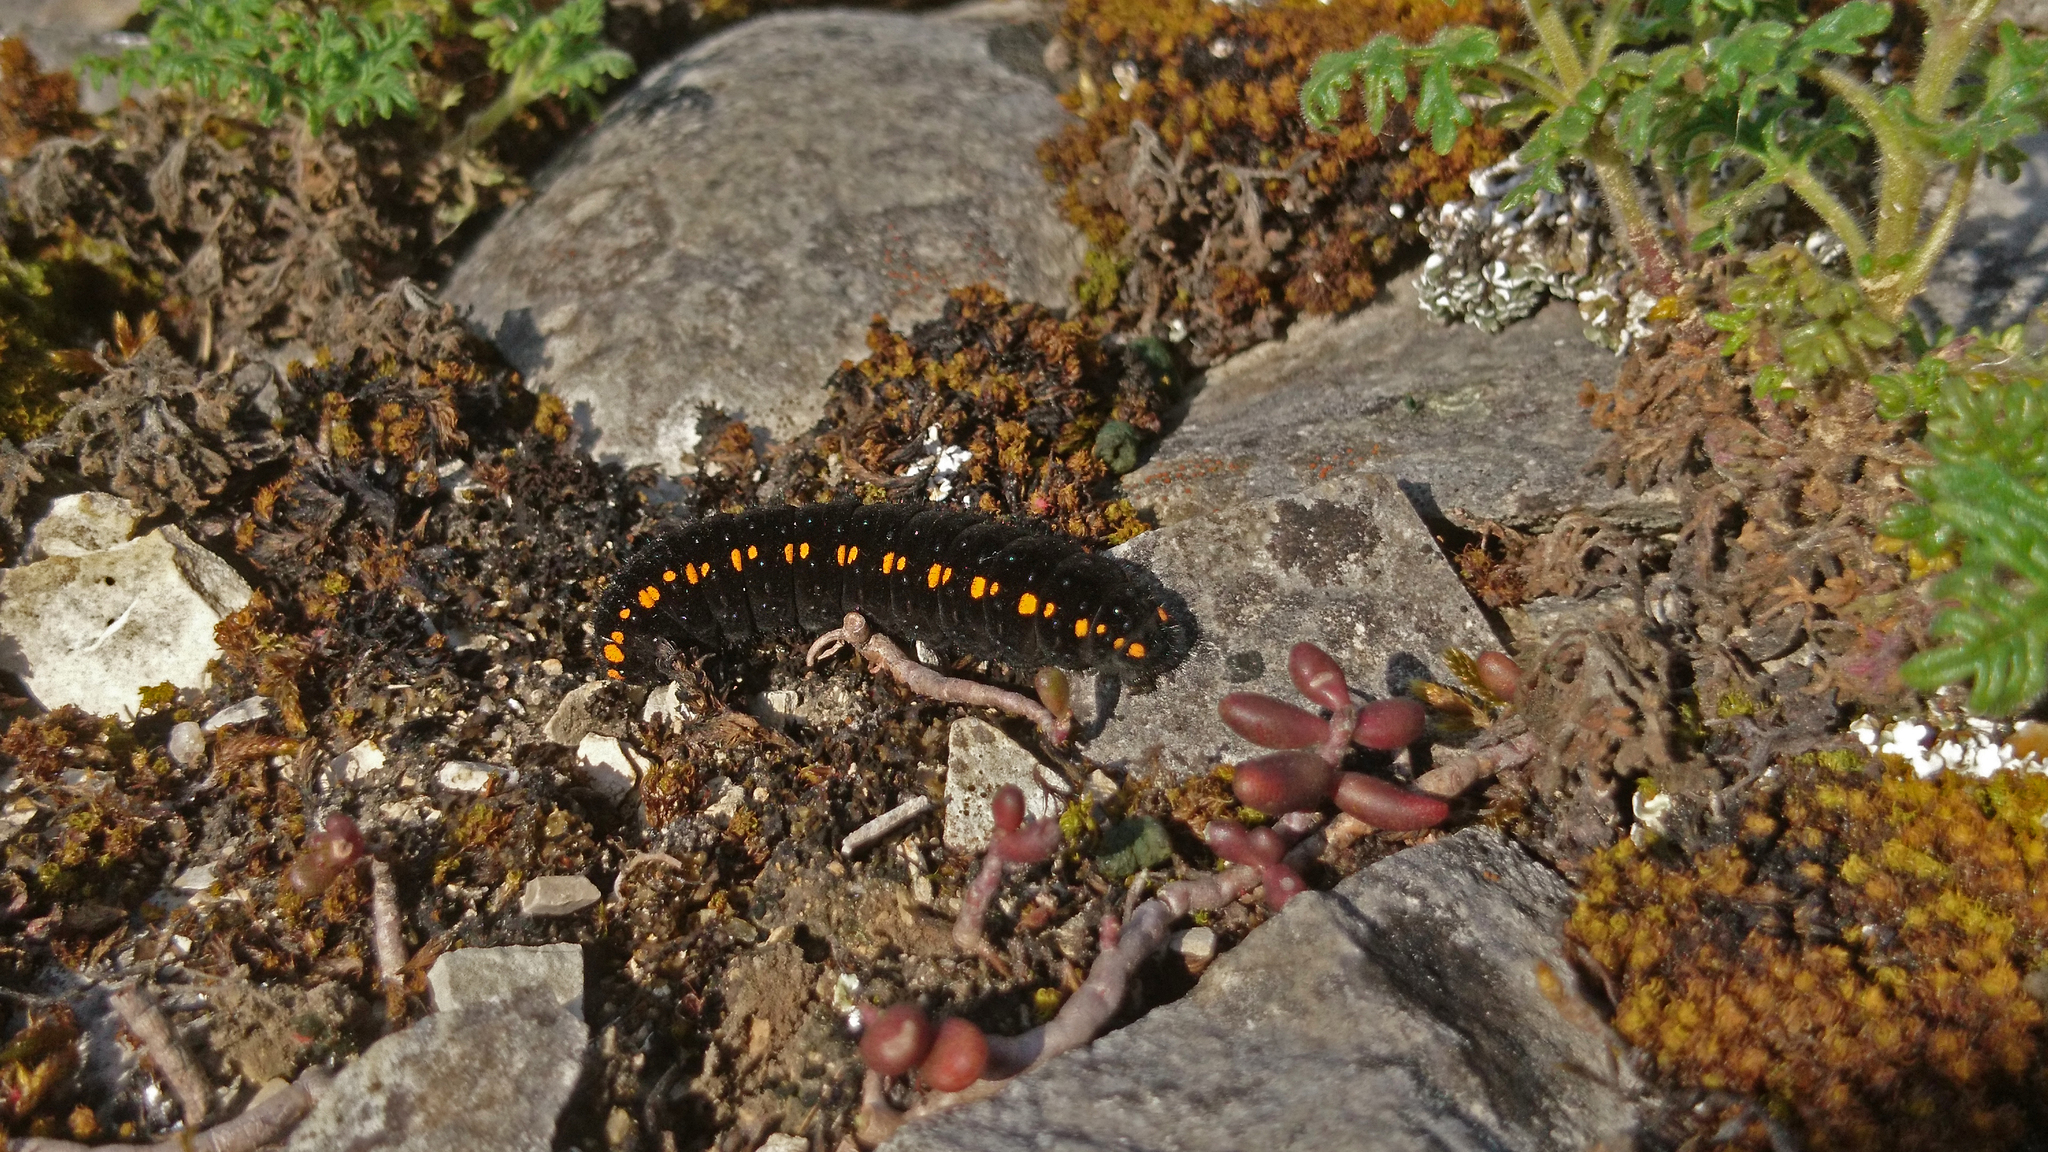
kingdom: Animalia
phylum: Arthropoda
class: Insecta
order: Lepidoptera
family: Papilionidae
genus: Parnassius
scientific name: Parnassius apollo
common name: Apollo
